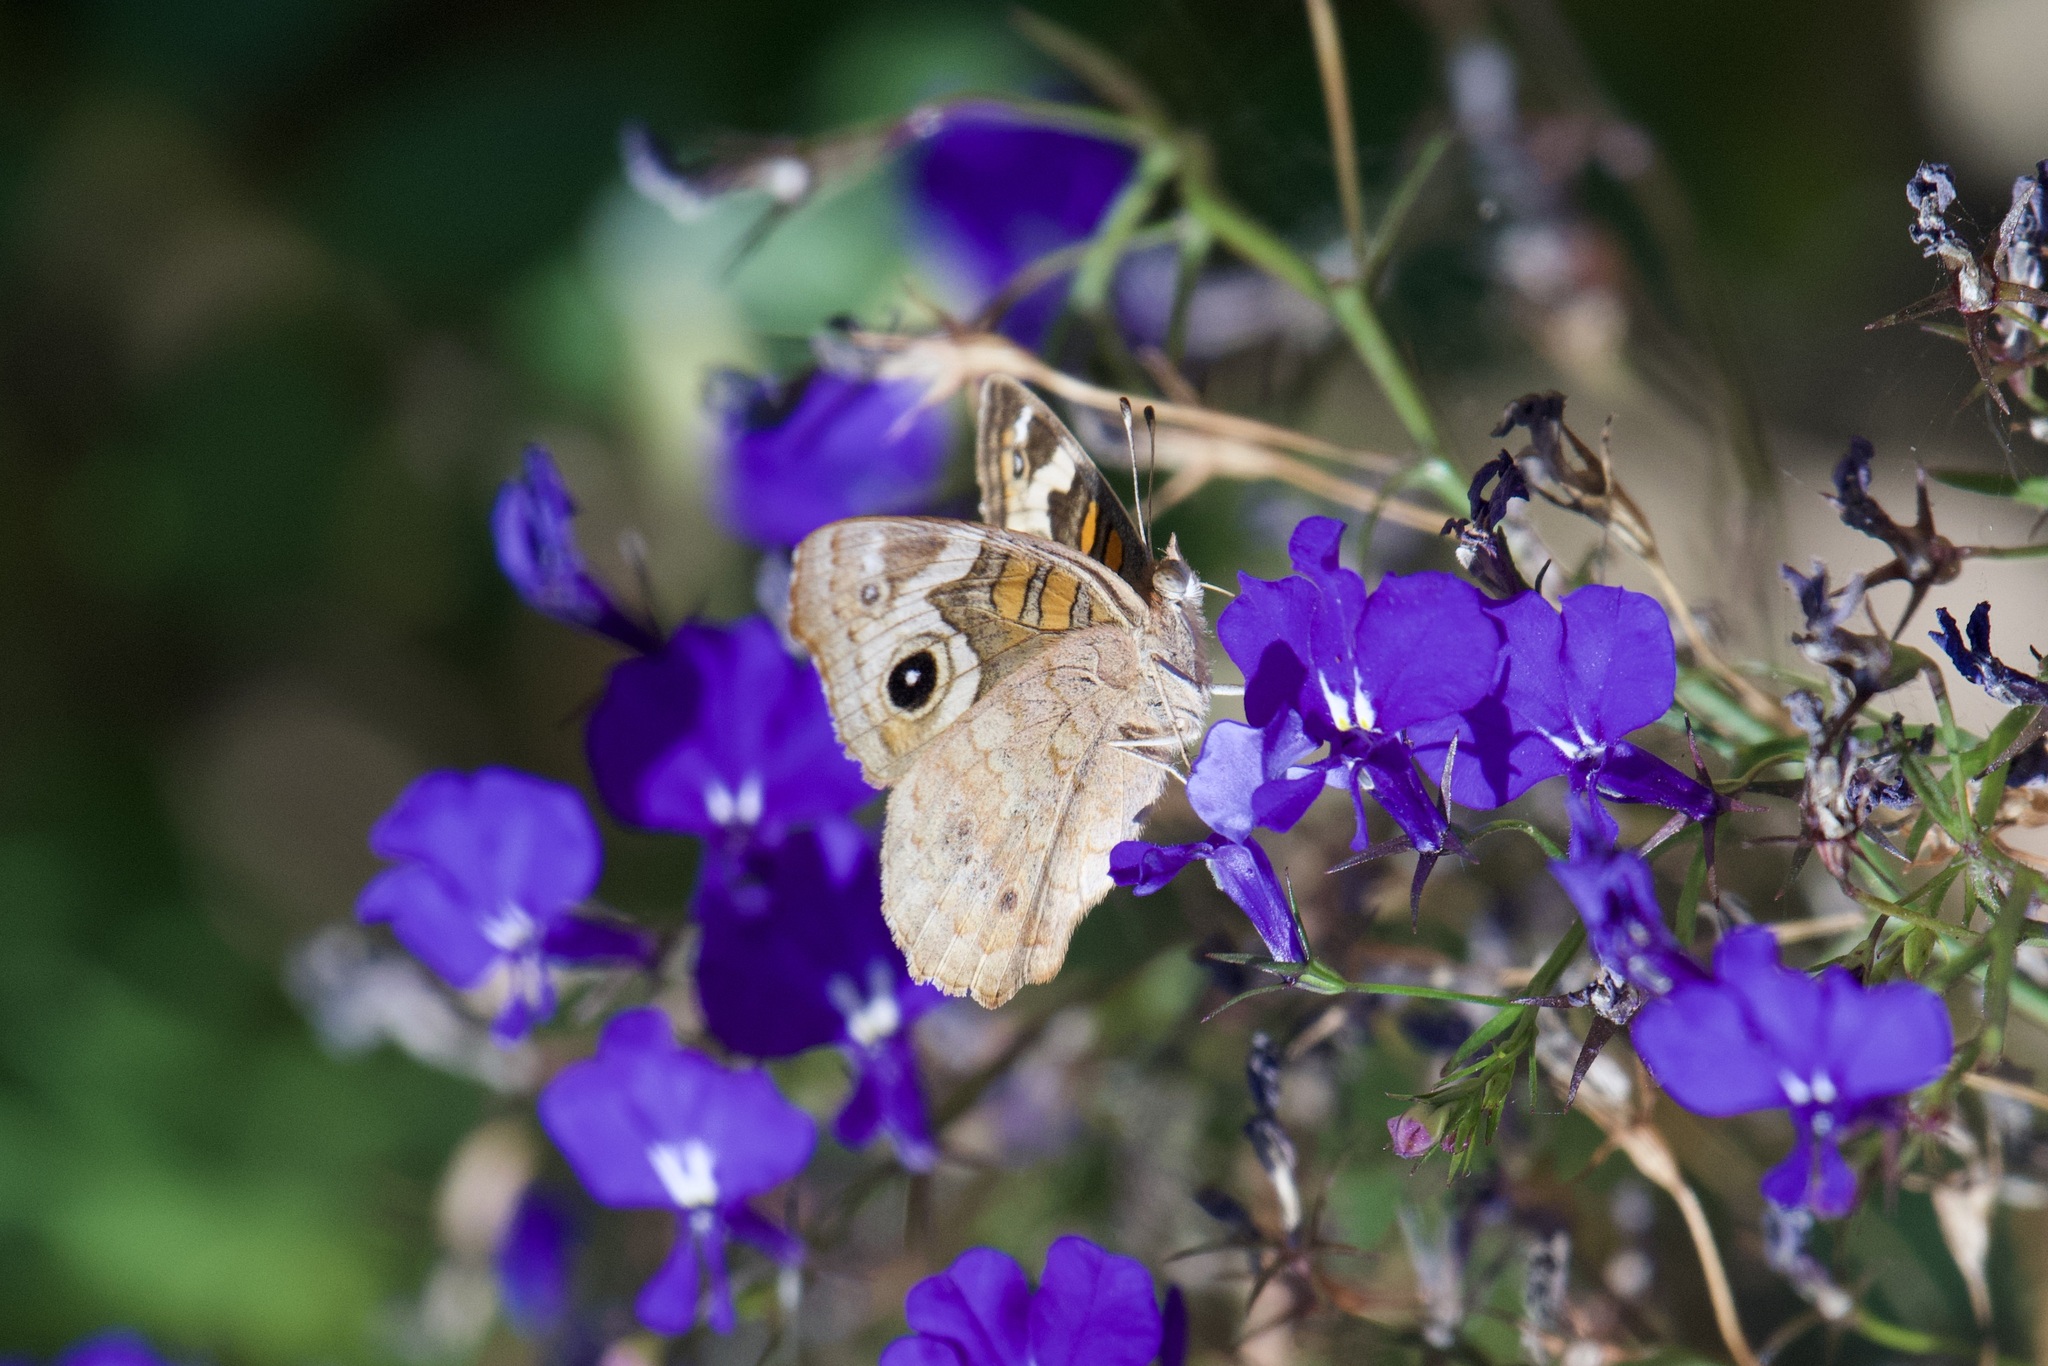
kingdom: Animalia
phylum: Arthropoda
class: Insecta
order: Lepidoptera
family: Nymphalidae
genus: Junonia
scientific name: Junonia grisea
